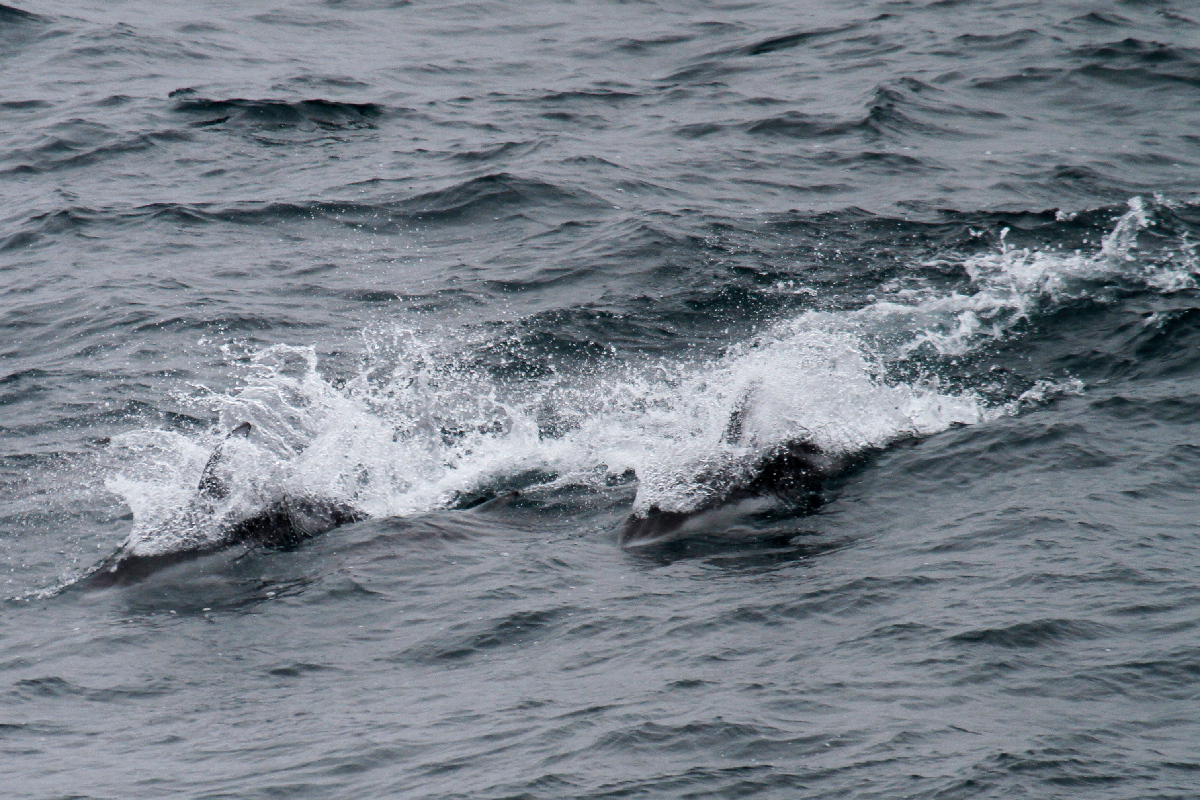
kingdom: Animalia
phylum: Chordata
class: Mammalia
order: Cetacea
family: Delphinidae
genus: Lagenorhynchus
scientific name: Lagenorhynchus obliquidens
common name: Pacific white-sided dolphin
